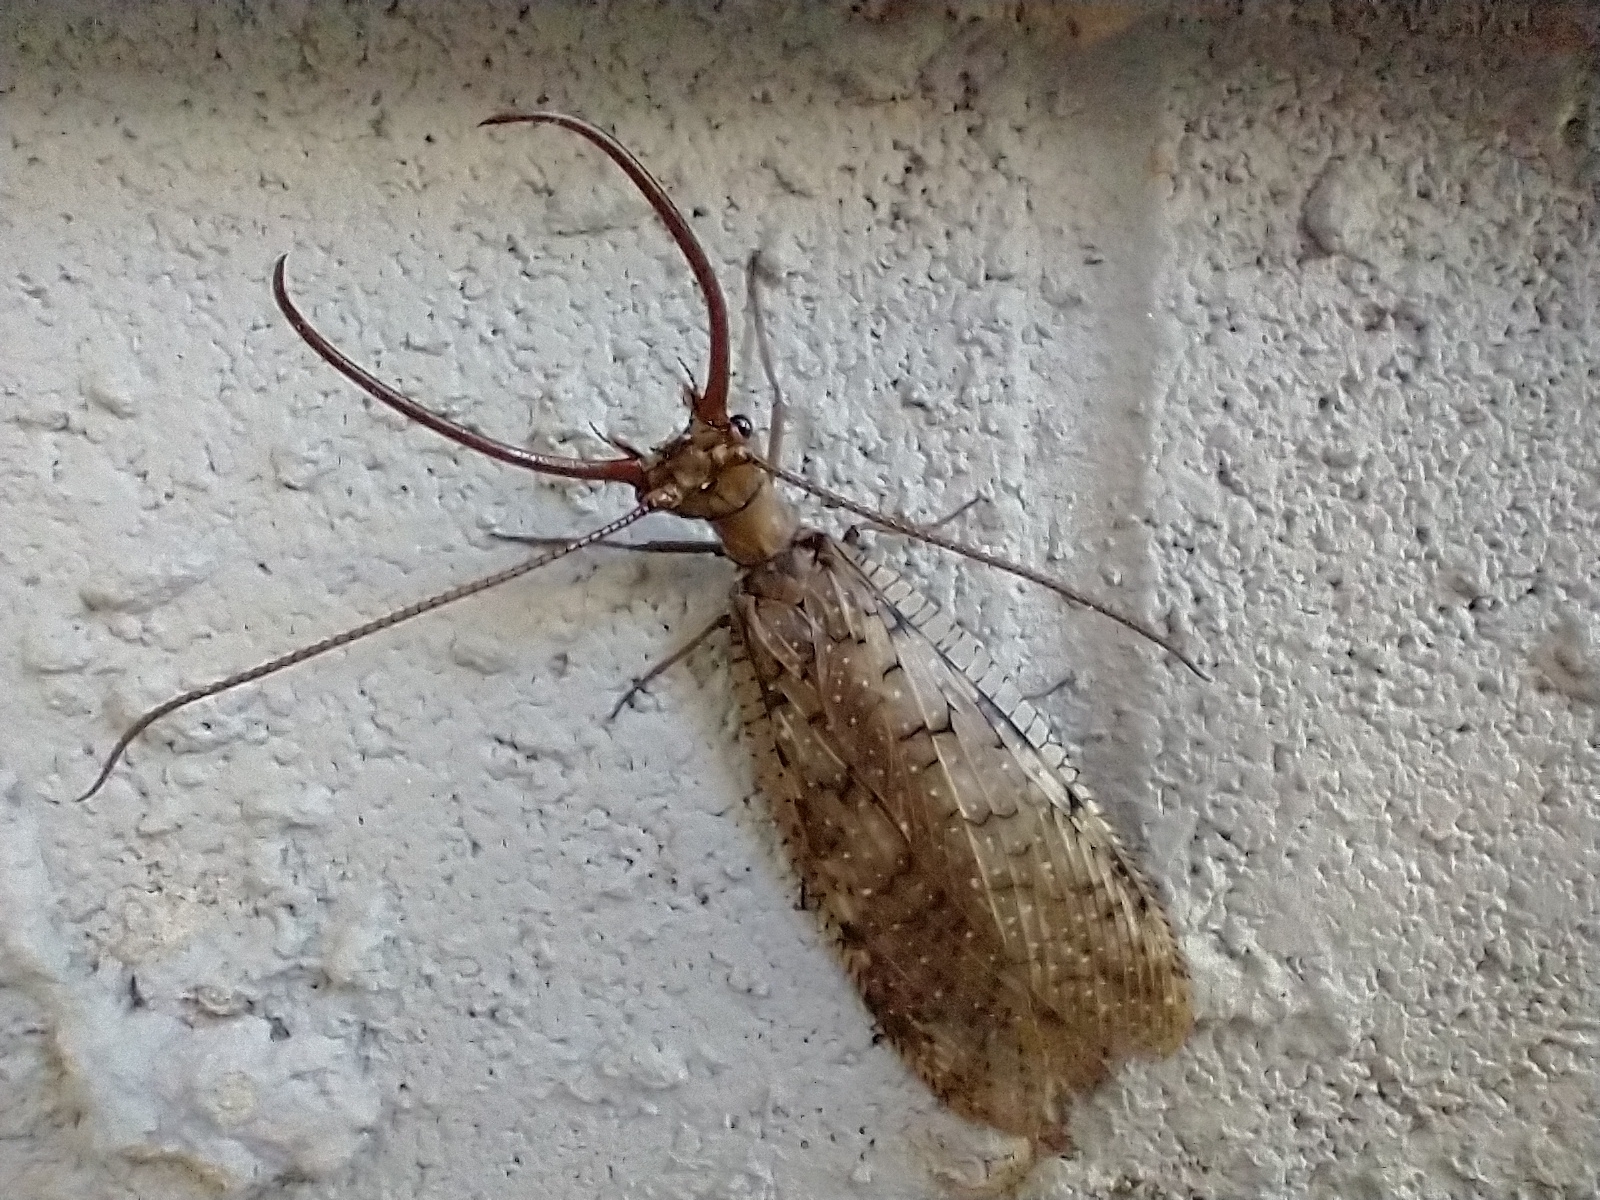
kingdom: Animalia
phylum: Arthropoda
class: Insecta
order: Megaloptera
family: Corydalidae
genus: Corydalus
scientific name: Corydalus cornutus
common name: Dobsonfly
